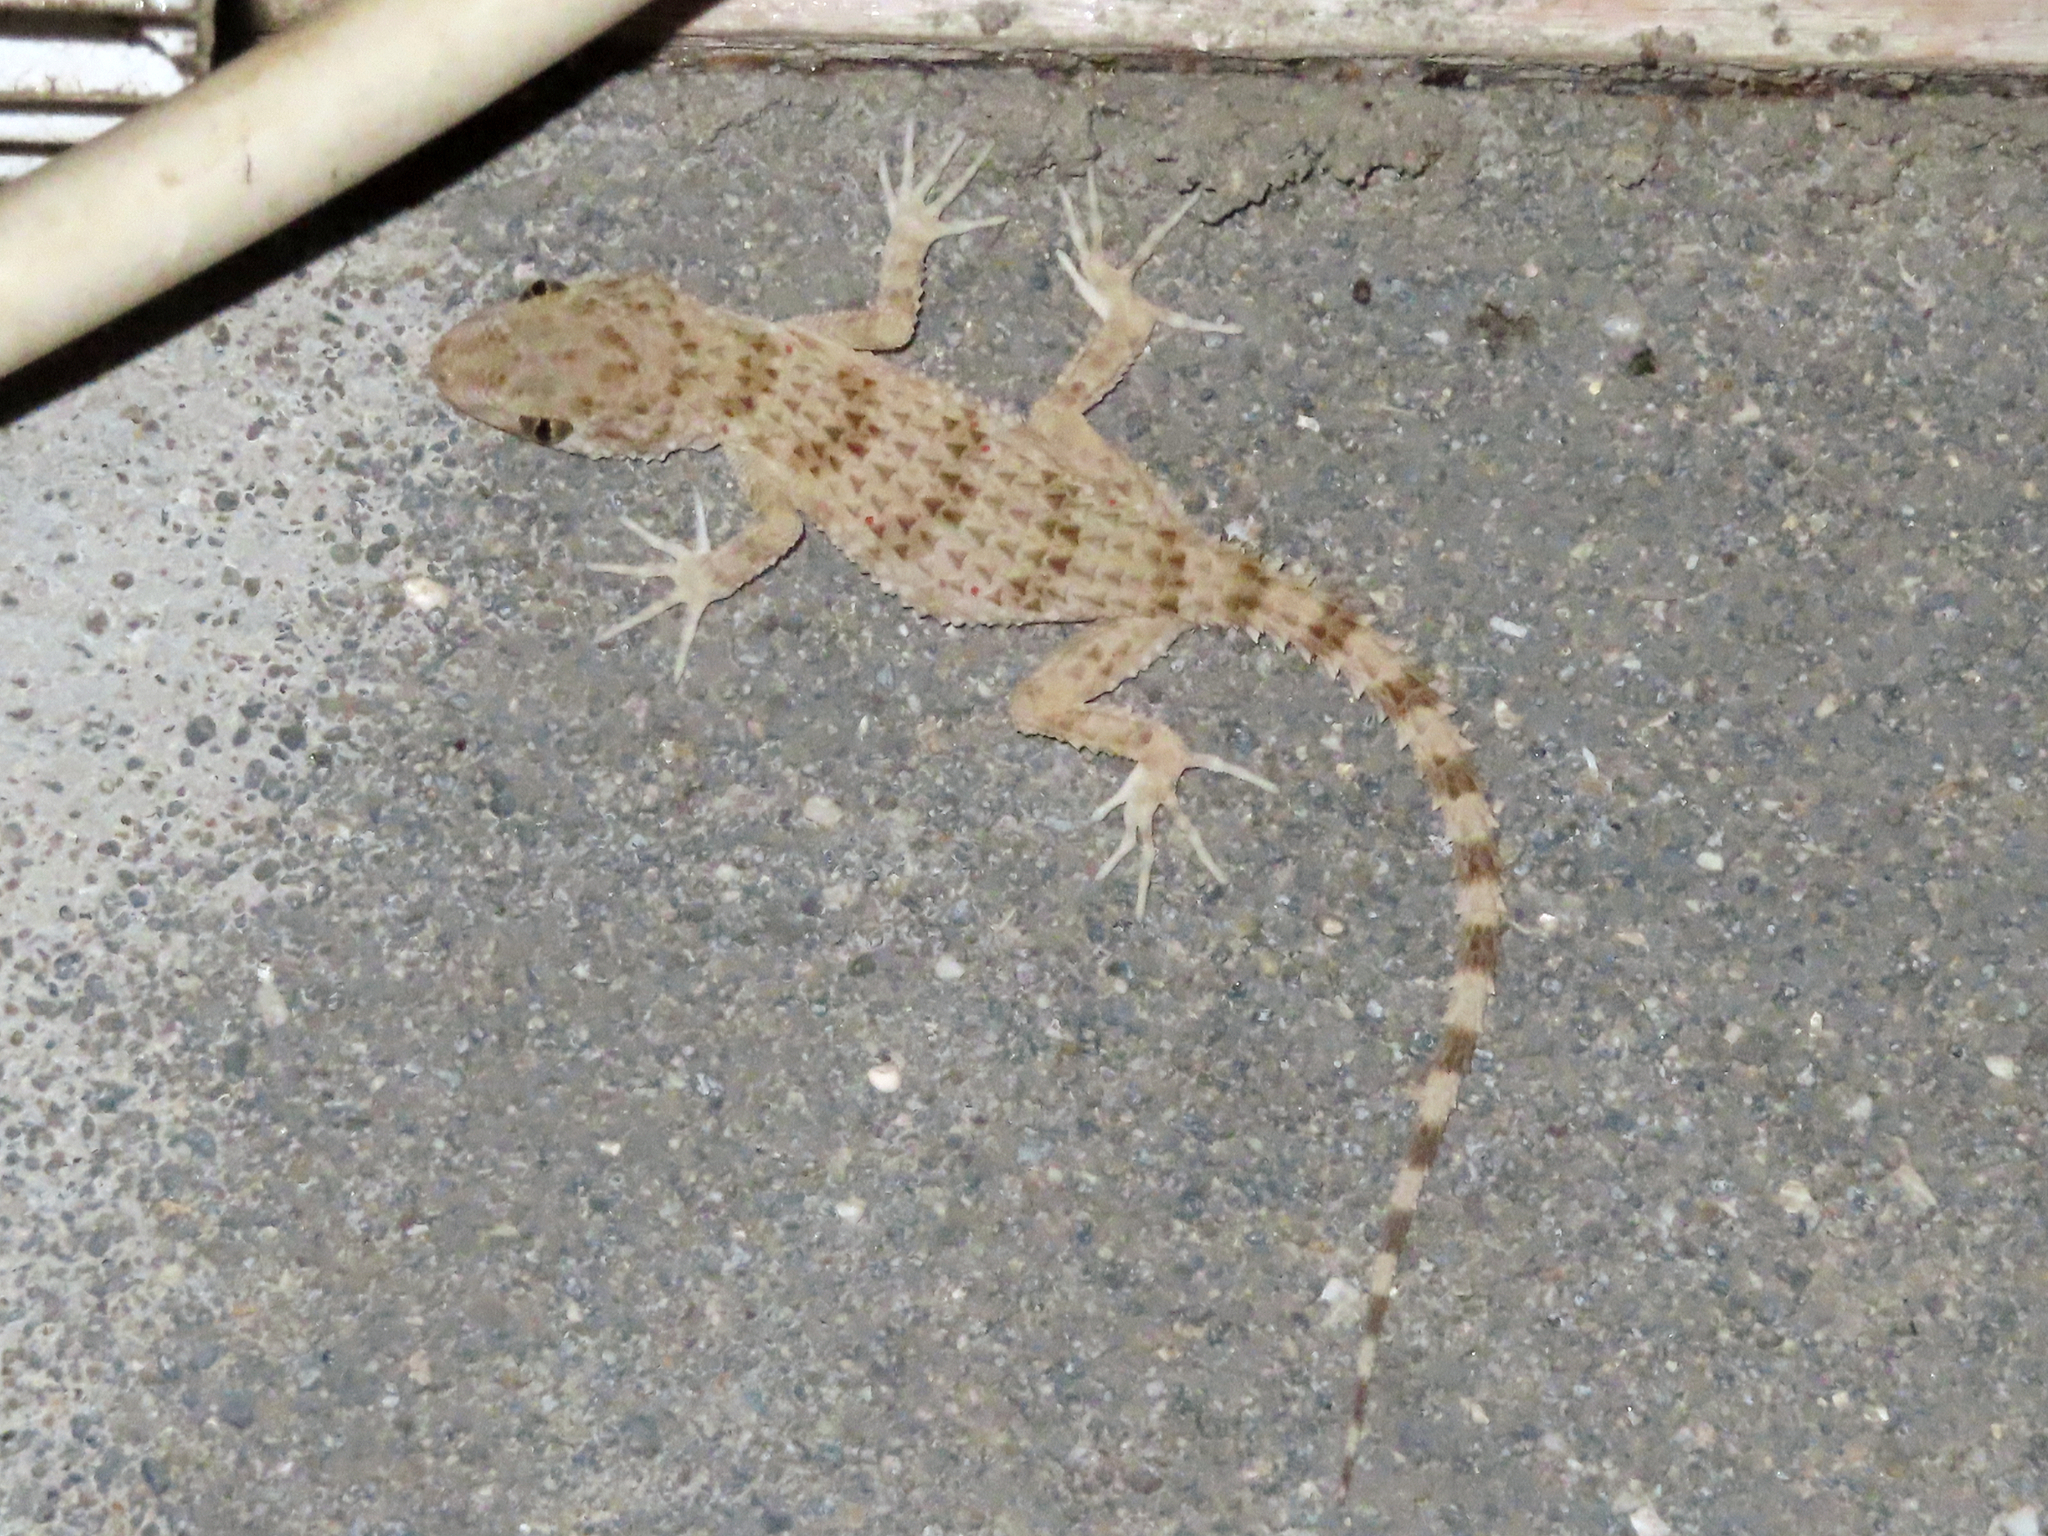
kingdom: Animalia
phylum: Chordata
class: Squamata
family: Gekkonidae
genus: Tenuidactylus
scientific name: Tenuidactylus caspius
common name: Caspian bent-toed gecko
